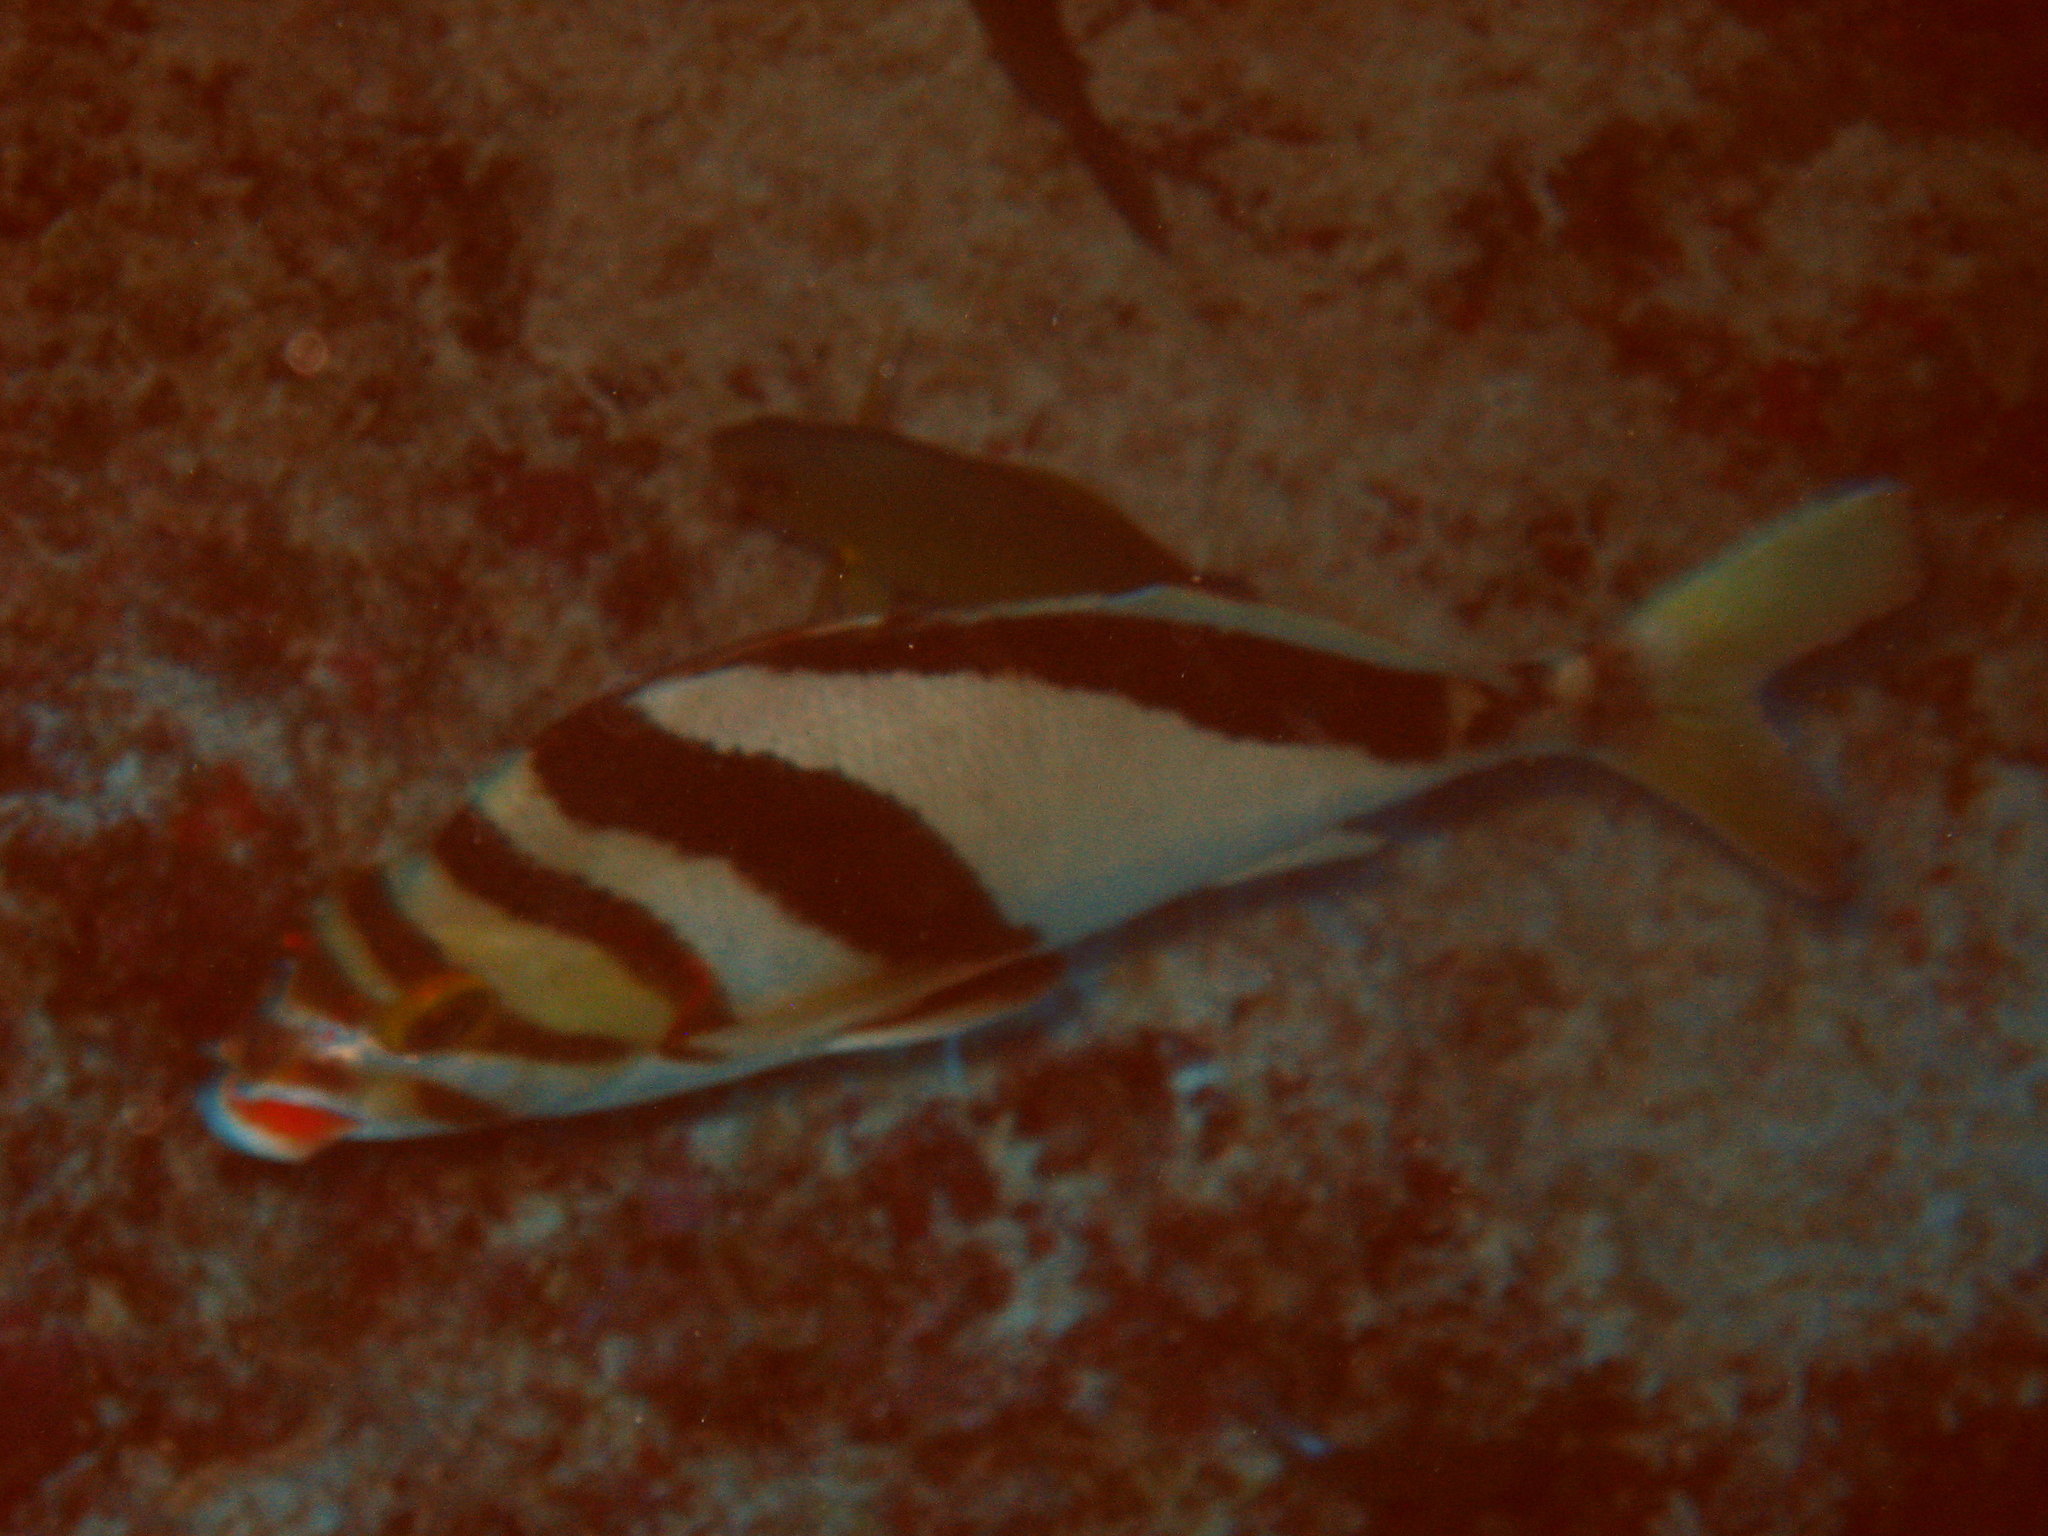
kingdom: Animalia
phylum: Chordata
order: Perciformes
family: Cheilodactylidae
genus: Cheilodactylus
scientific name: Cheilodactylus vittatus
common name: Hawaiian morwong
